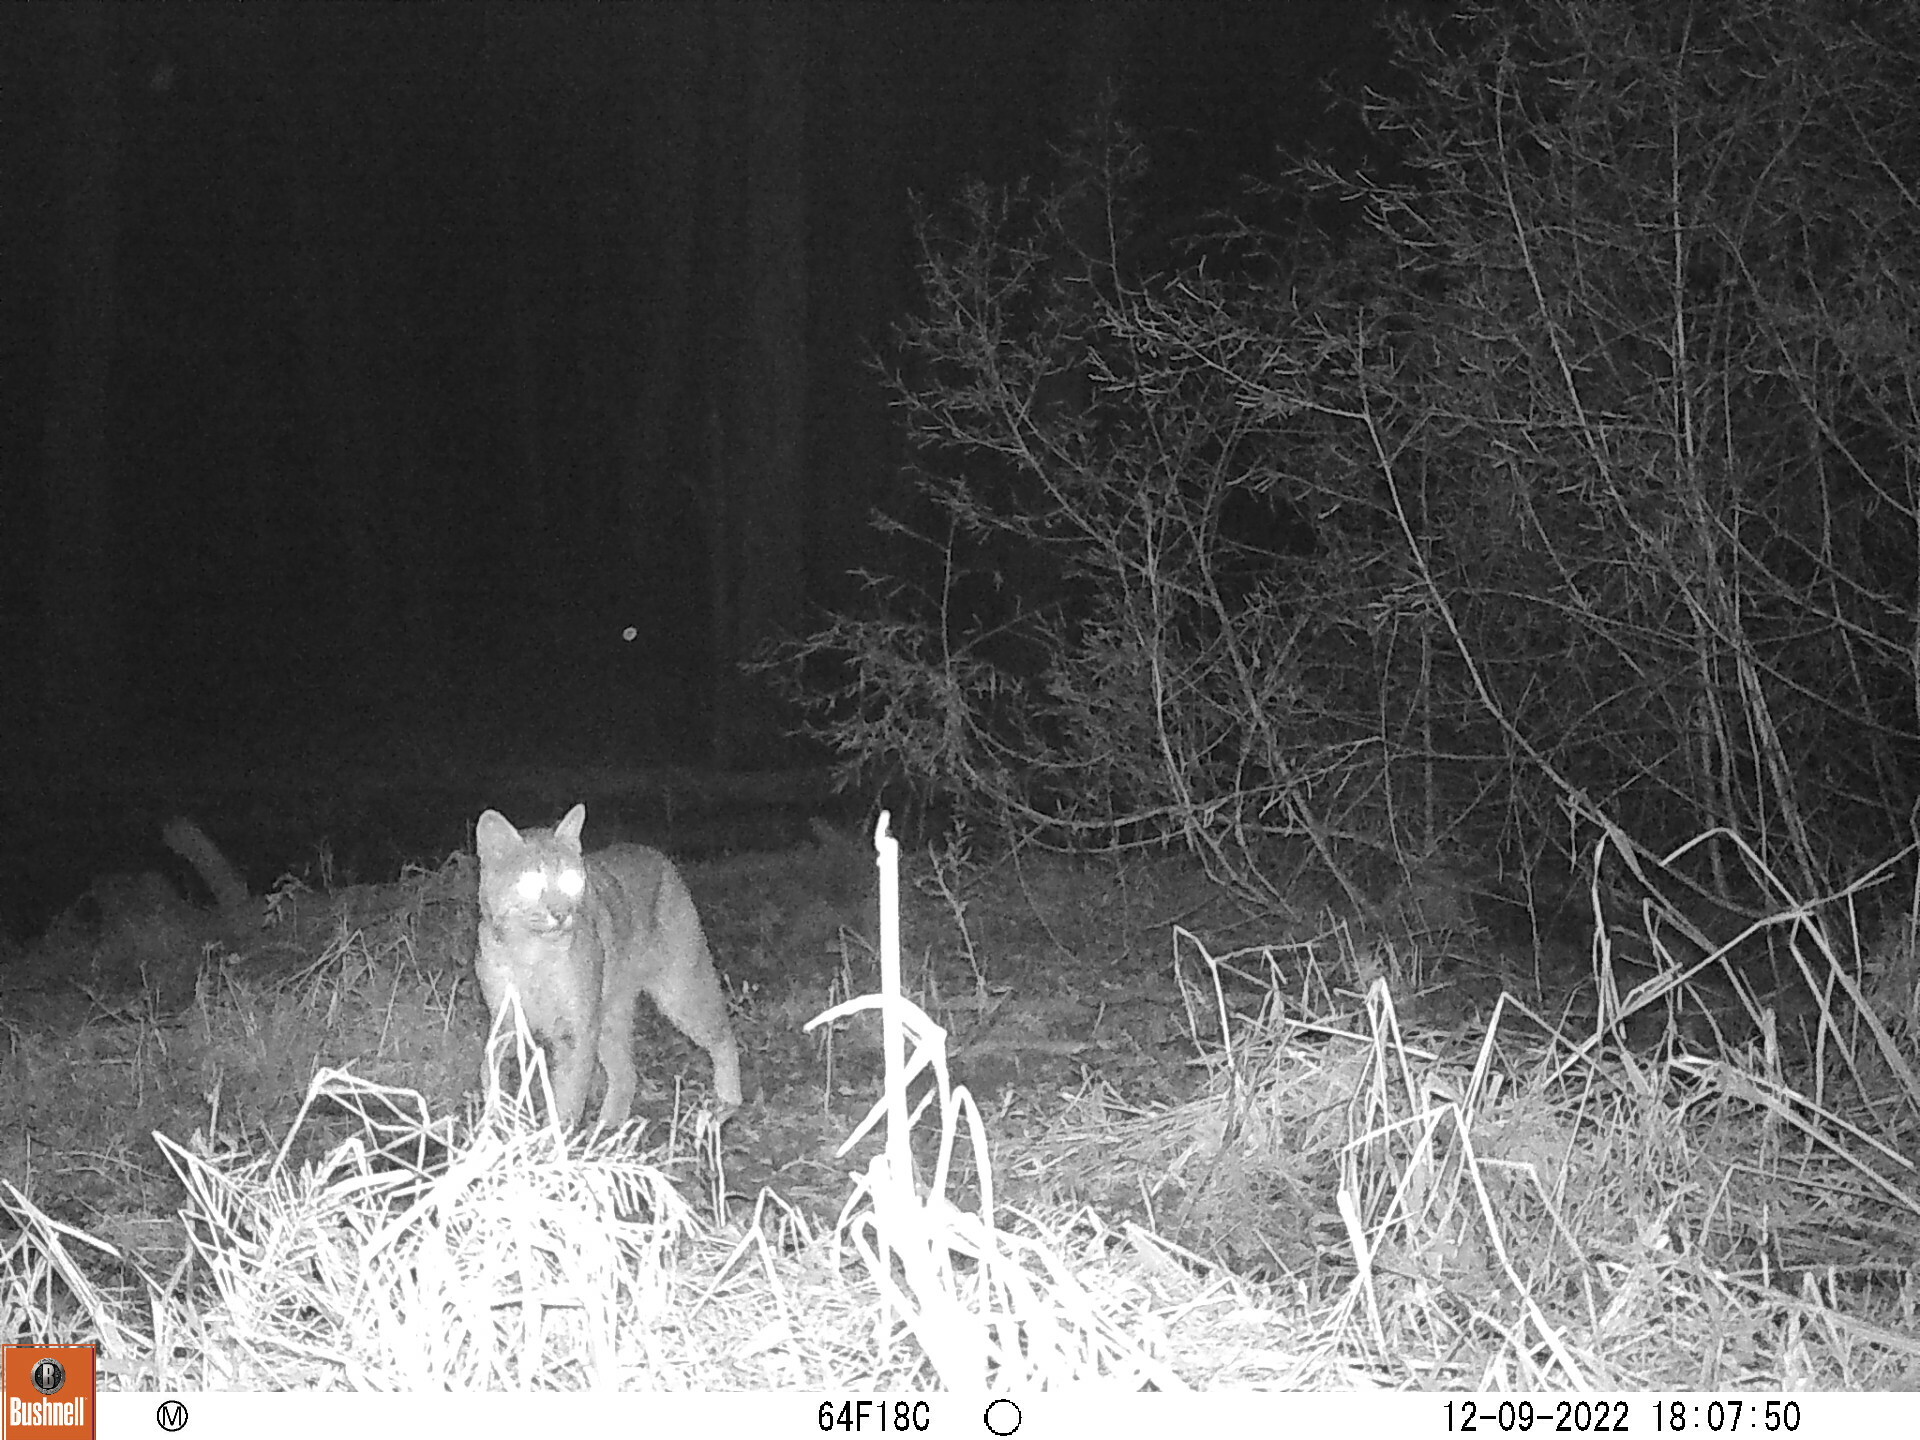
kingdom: Animalia
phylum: Chordata
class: Mammalia
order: Carnivora
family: Felidae
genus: Lynx
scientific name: Lynx rufus
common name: Bobcat
